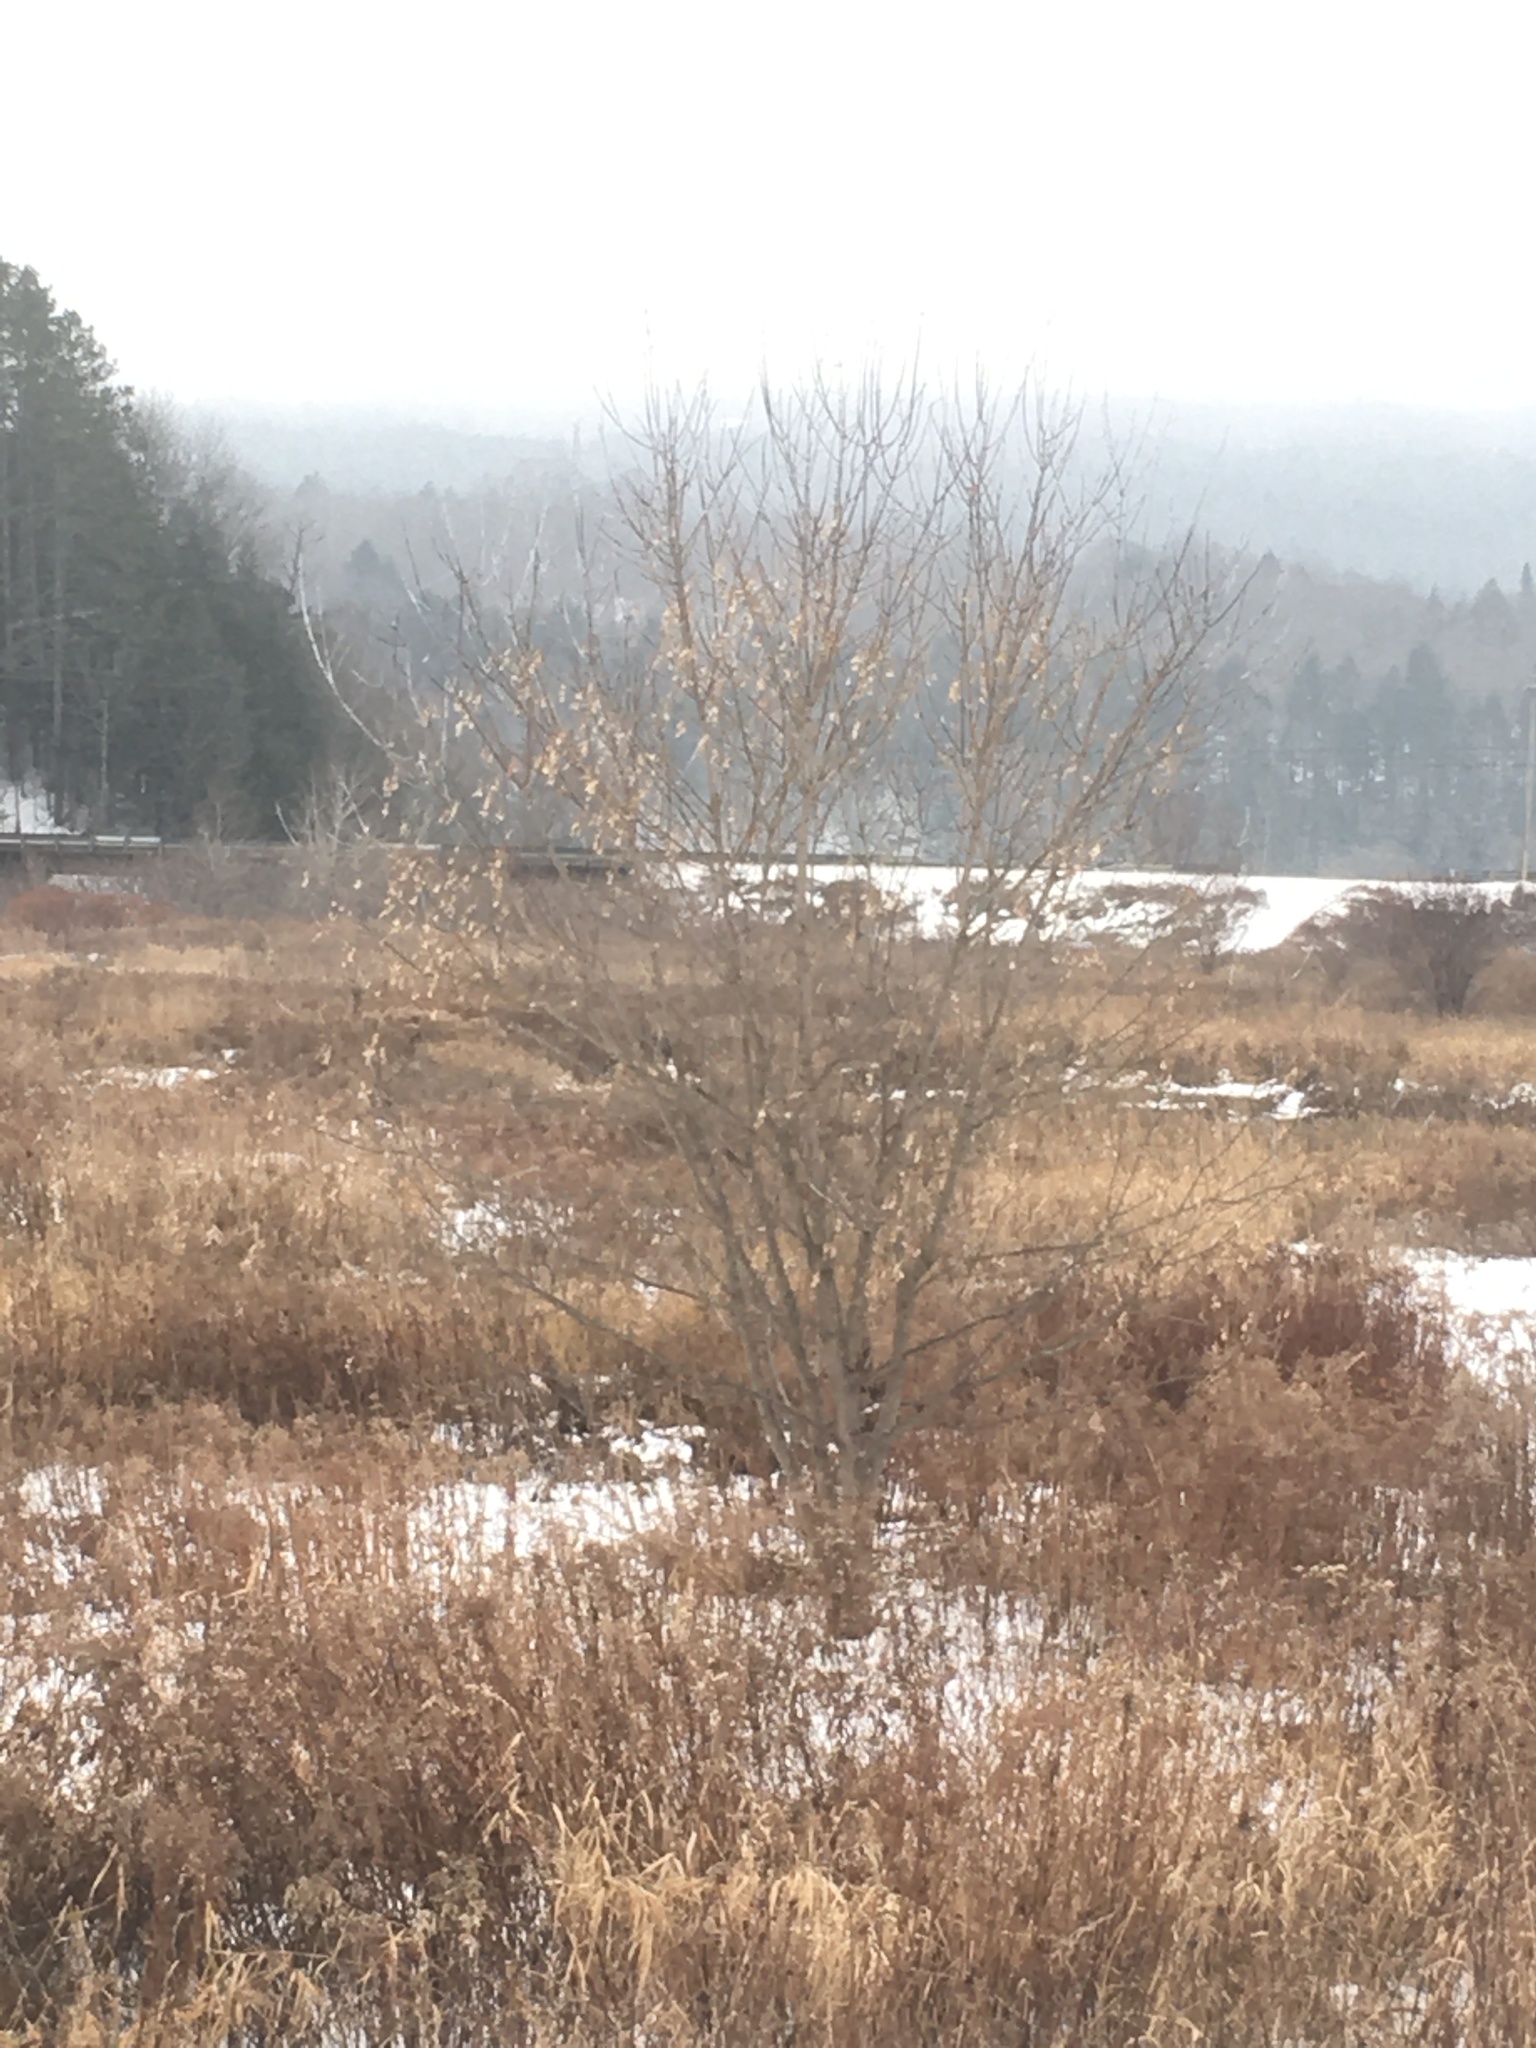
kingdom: Plantae
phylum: Tracheophyta
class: Magnoliopsida
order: Sapindales
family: Sapindaceae
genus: Acer
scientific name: Acer negundo
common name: Ashleaf maple
